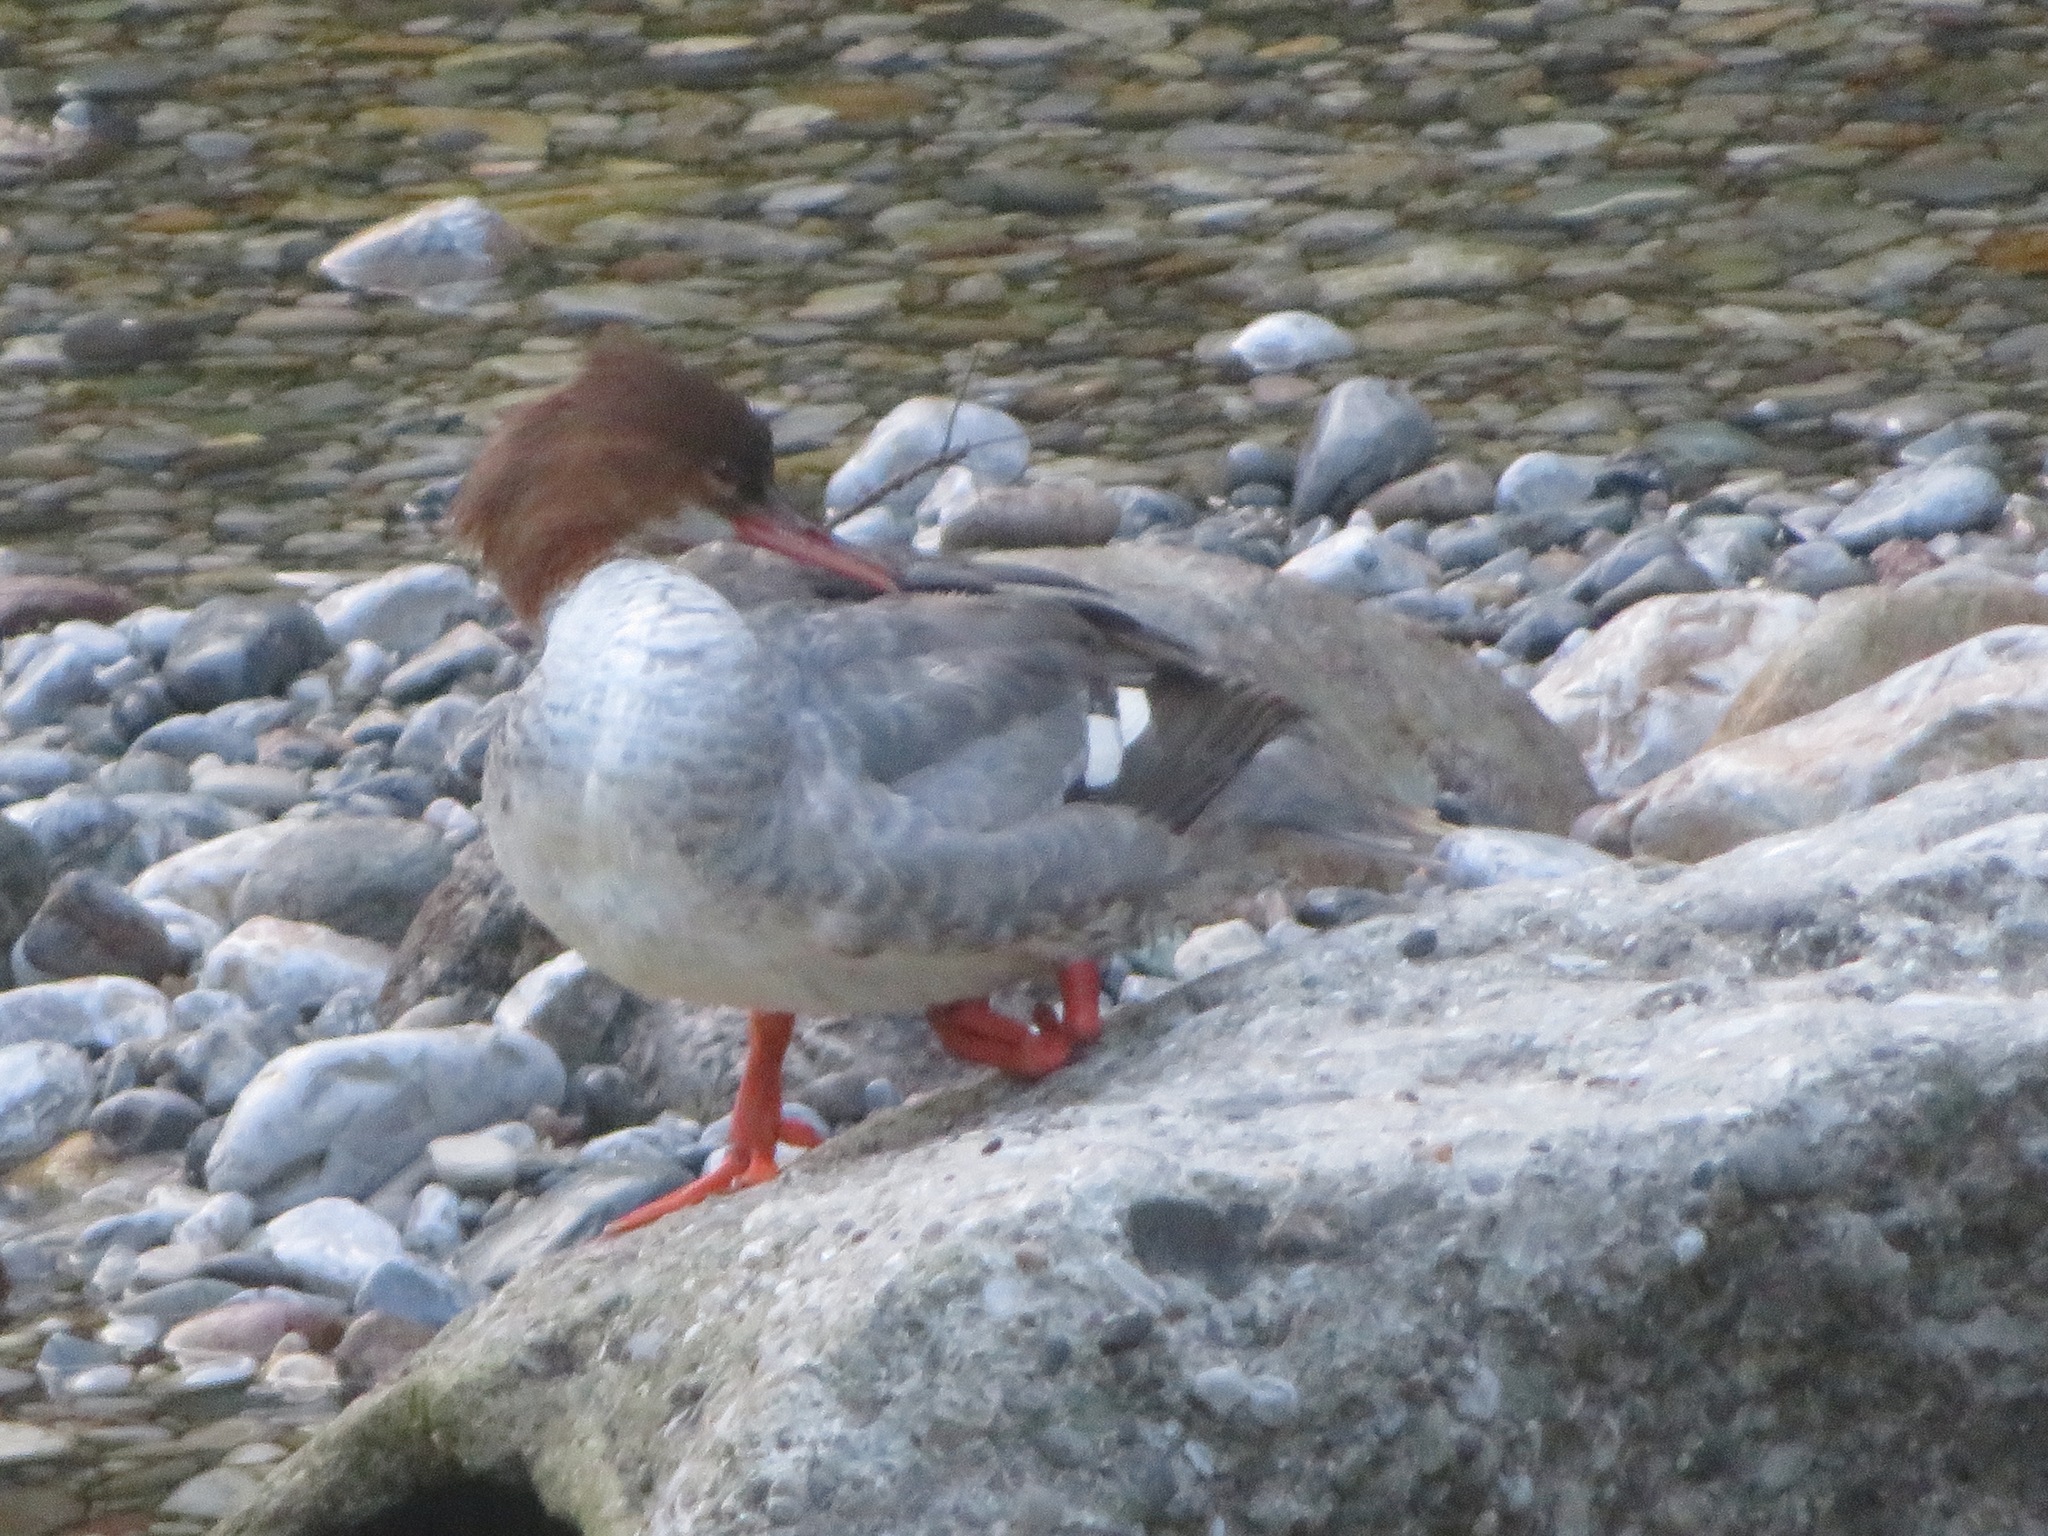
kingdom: Animalia
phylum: Chordata
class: Aves
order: Anseriformes
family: Anatidae
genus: Mergus
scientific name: Mergus merganser
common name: Common merganser
